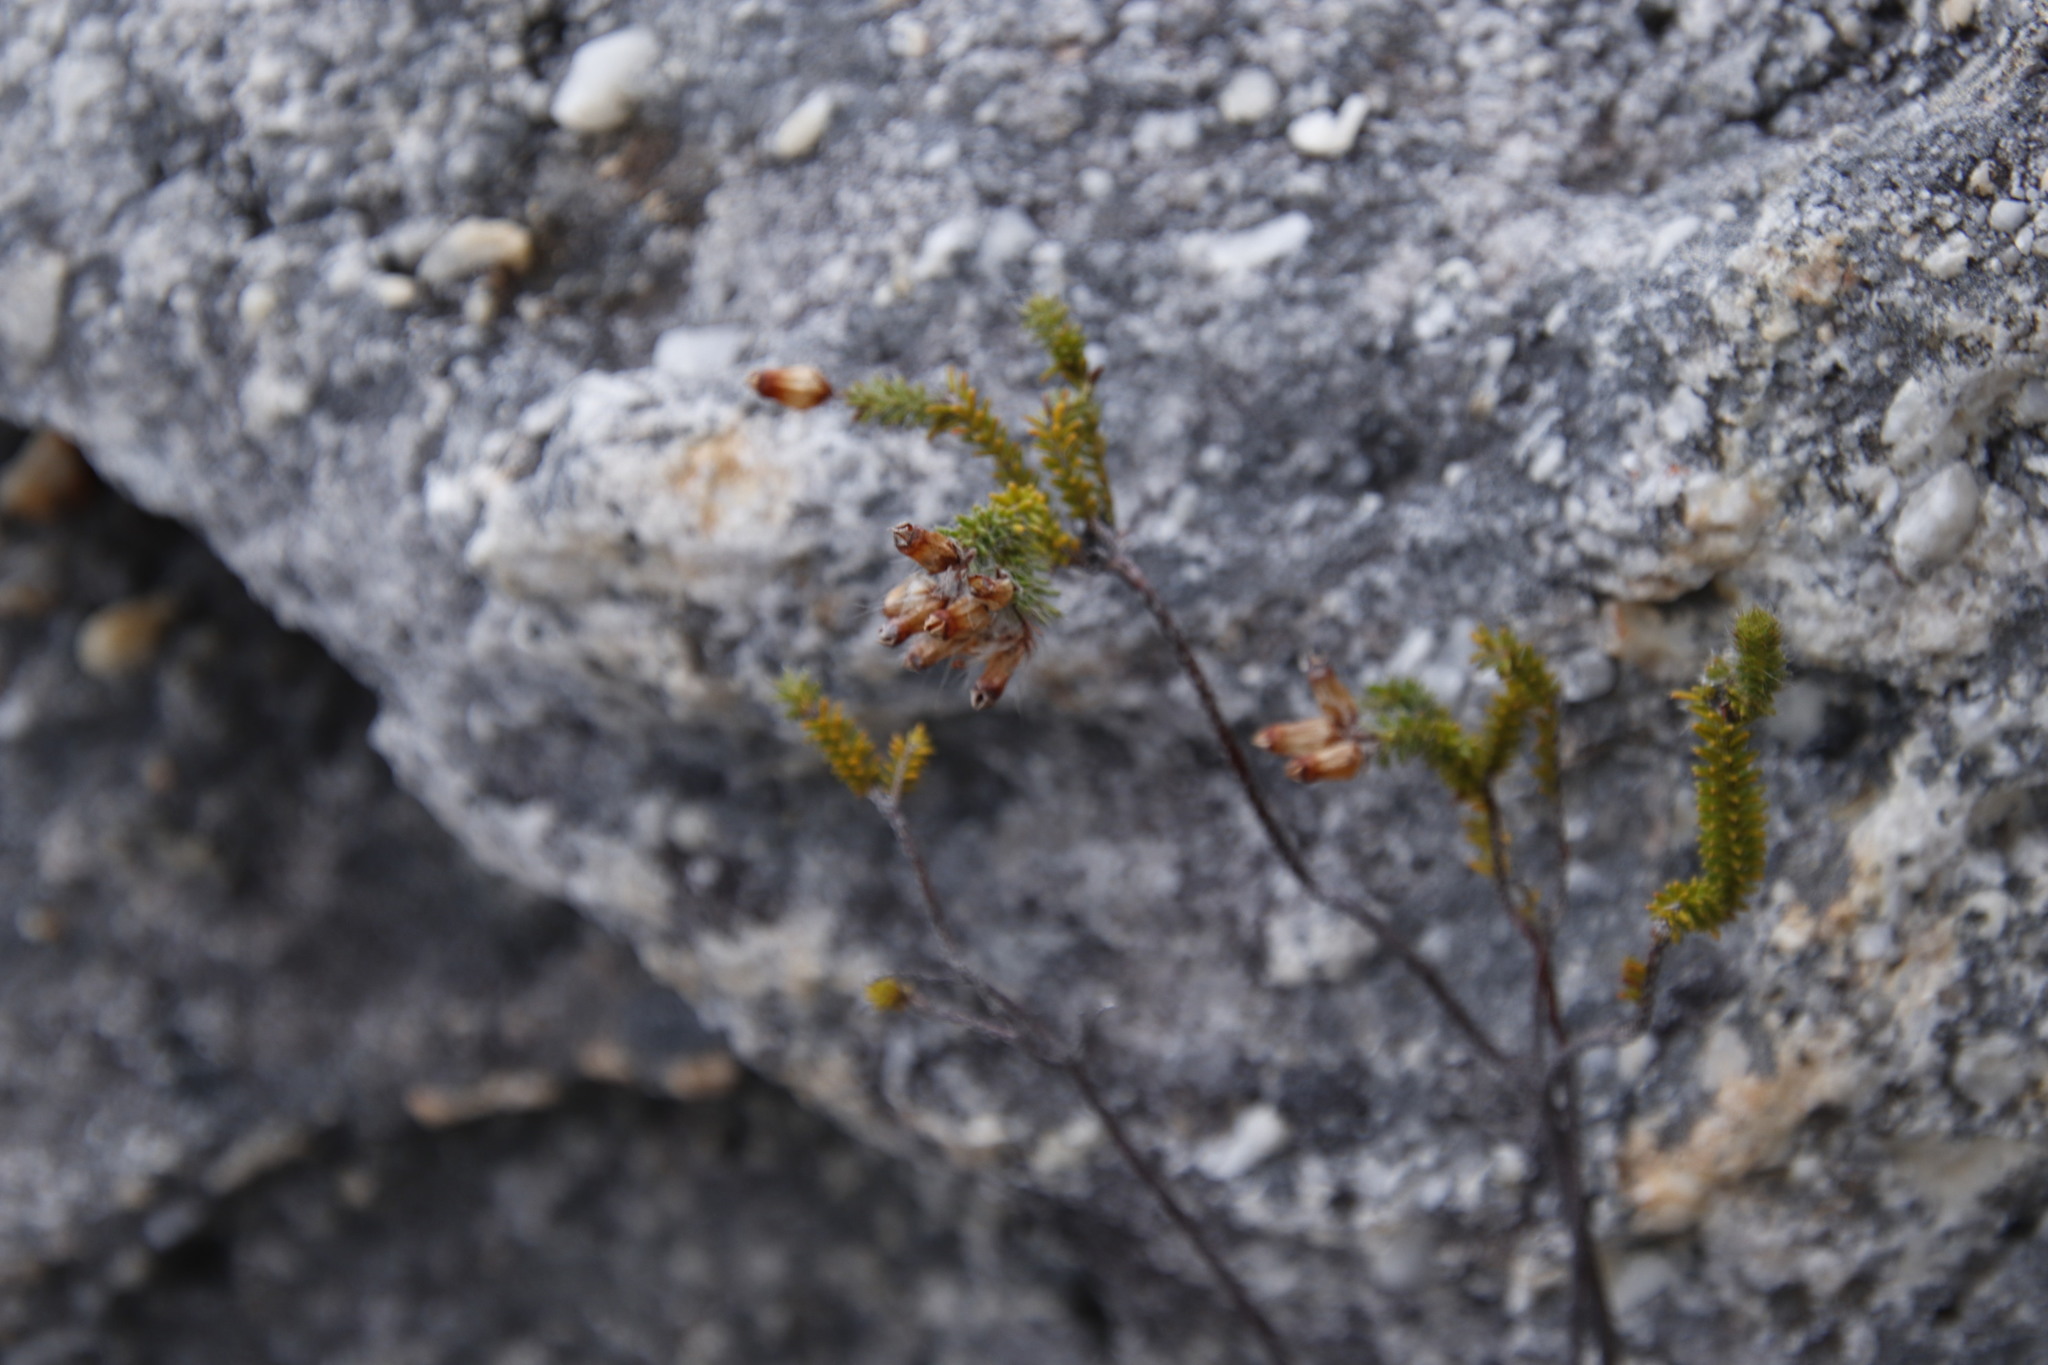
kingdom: Plantae
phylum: Tracheophyta
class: Magnoliopsida
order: Ericales
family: Ericaceae
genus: Erica
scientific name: Erica gysbertii
